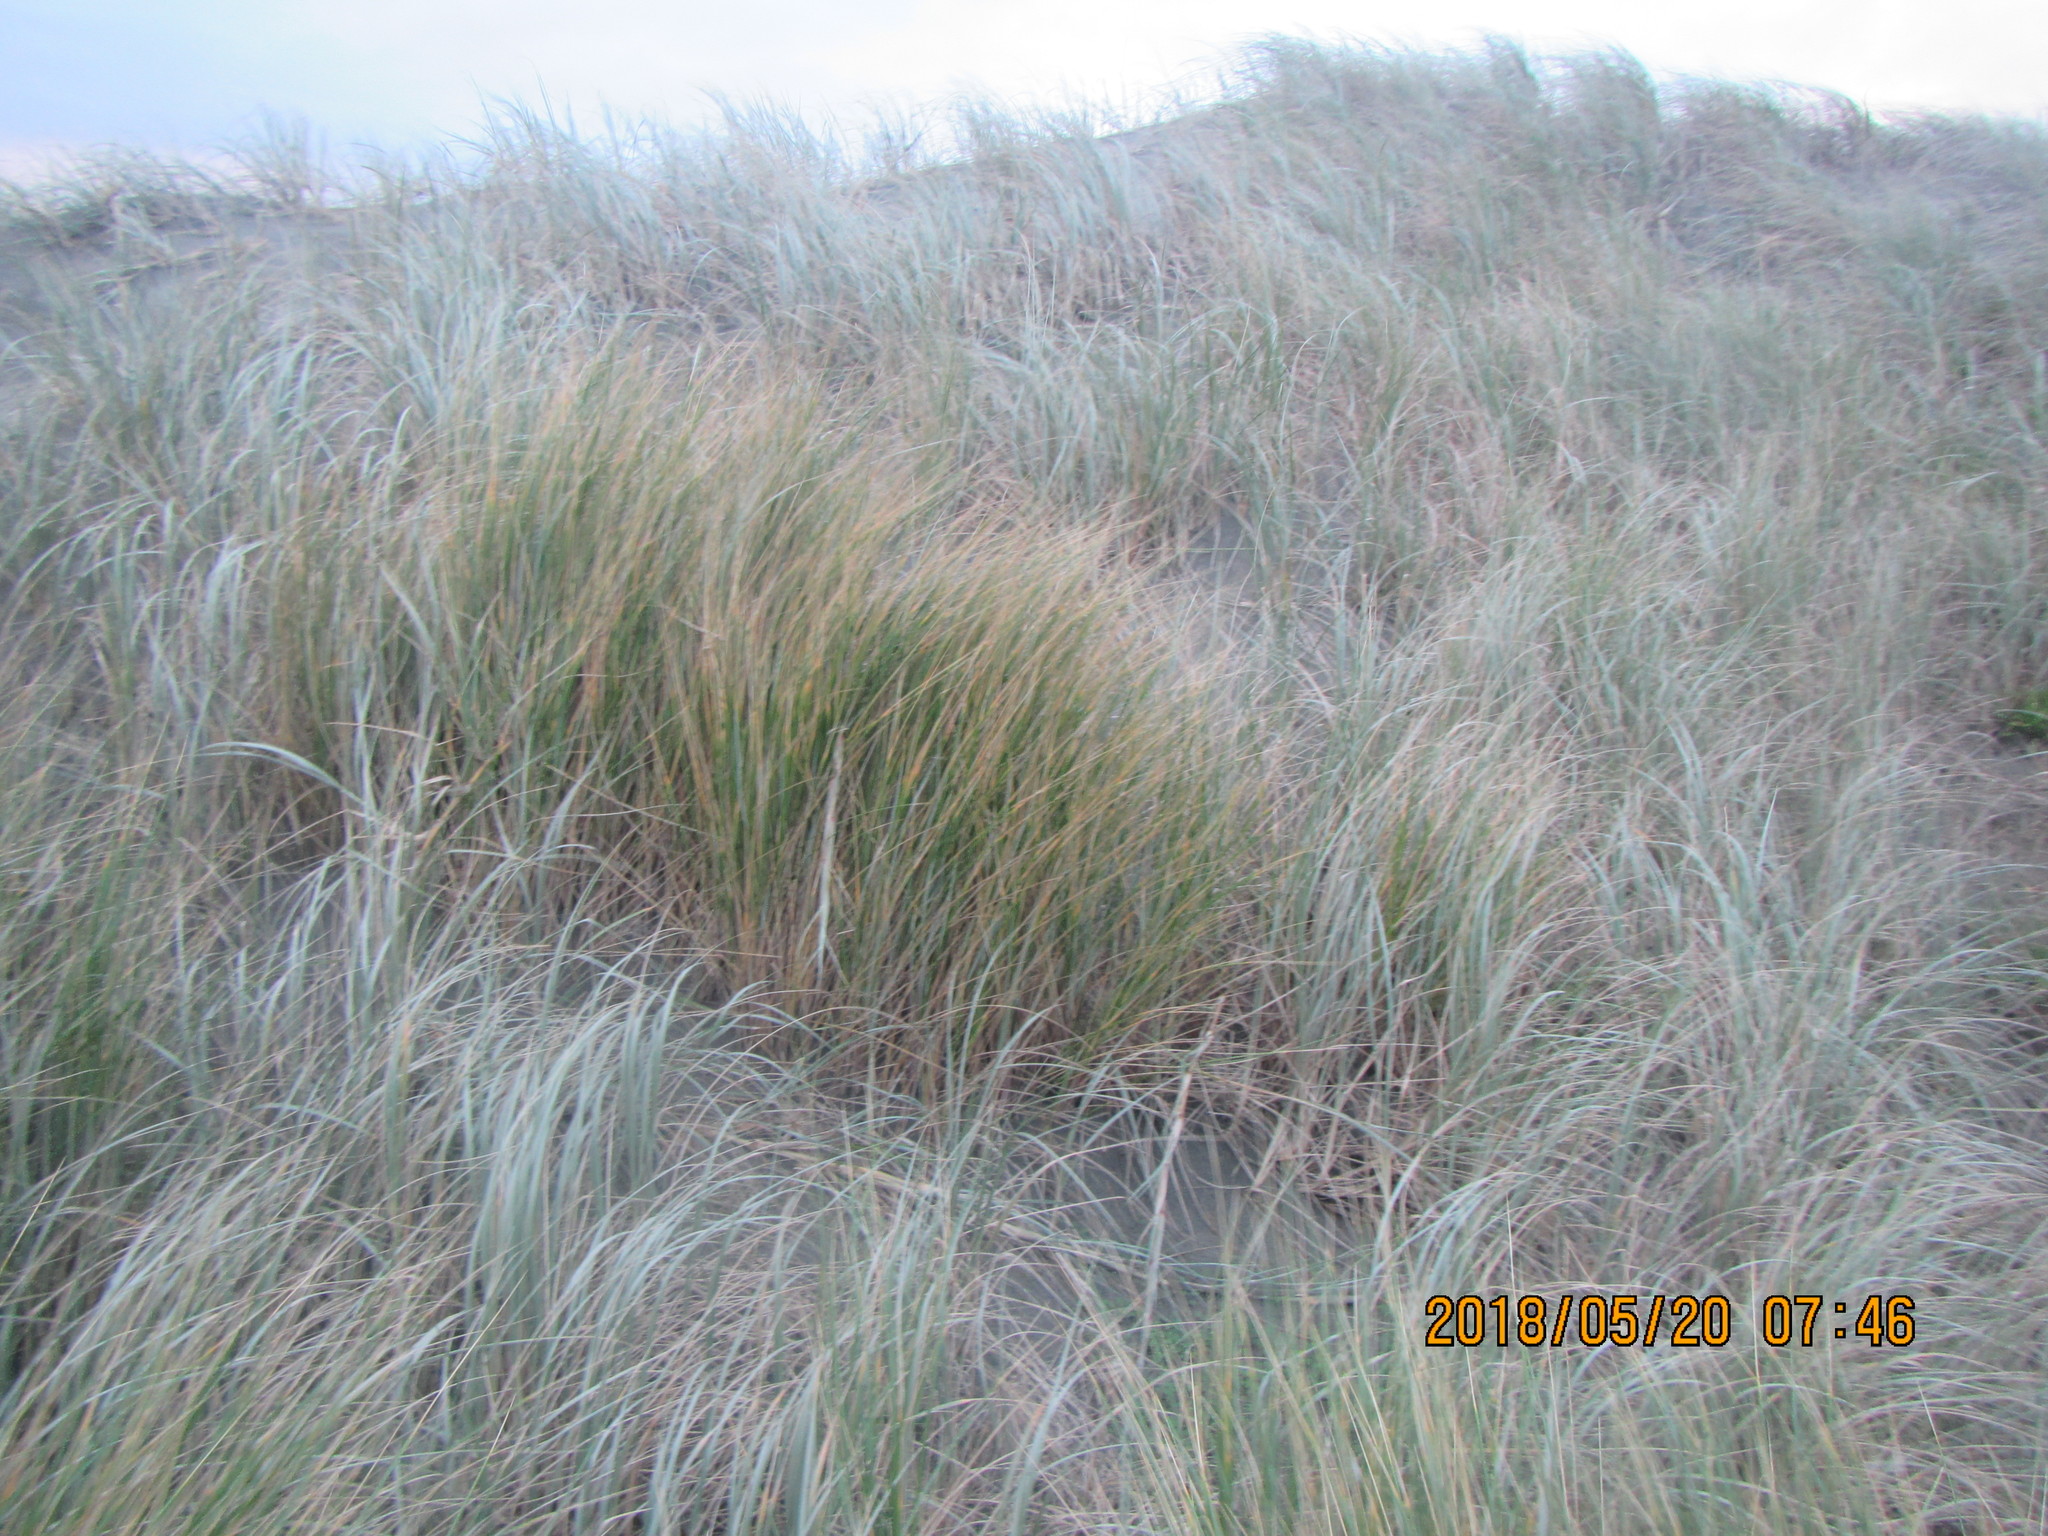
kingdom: Plantae
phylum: Tracheophyta
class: Liliopsida
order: Poales
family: Poaceae
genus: Calamagrostis
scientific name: Calamagrostis arenaria
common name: European beachgrass
